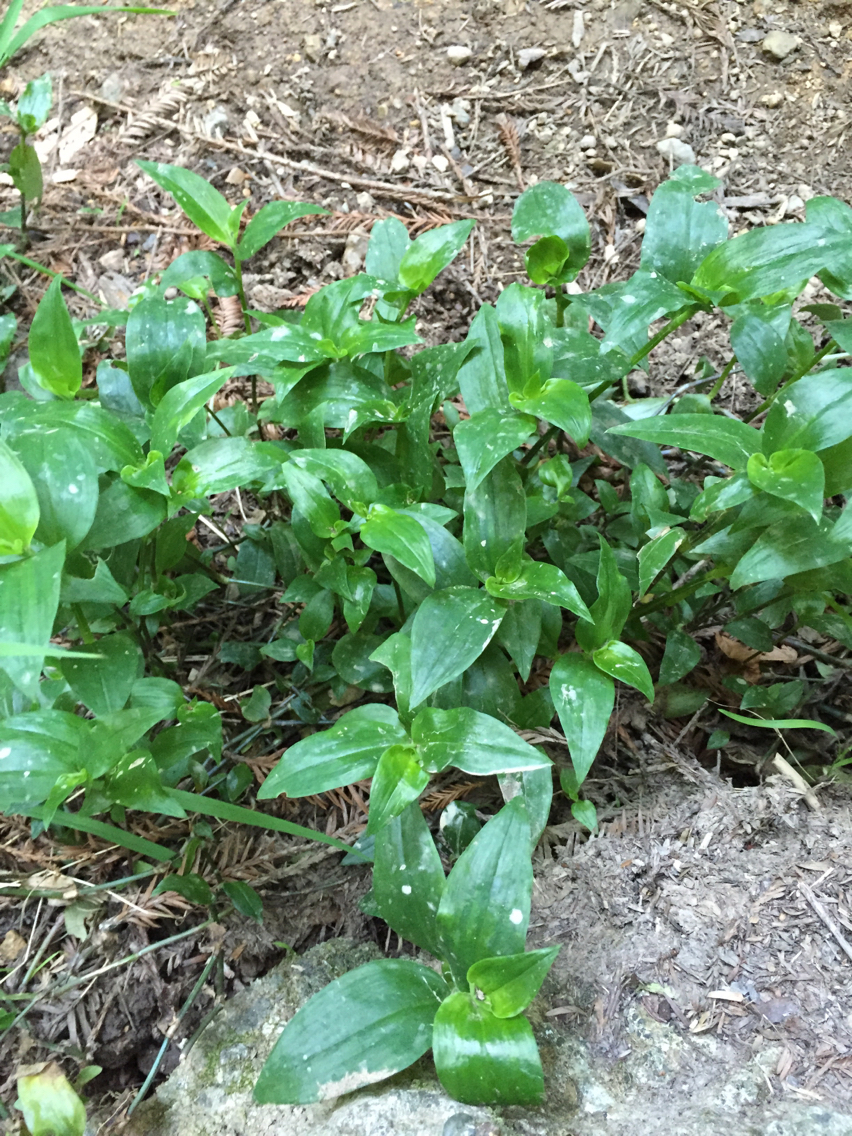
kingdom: Plantae
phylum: Tracheophyta
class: Liliopsida
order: Commelinales
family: Commelinaceae
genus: Tradescantia
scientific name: Tradescantia fluminensis
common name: Wandering-jew
